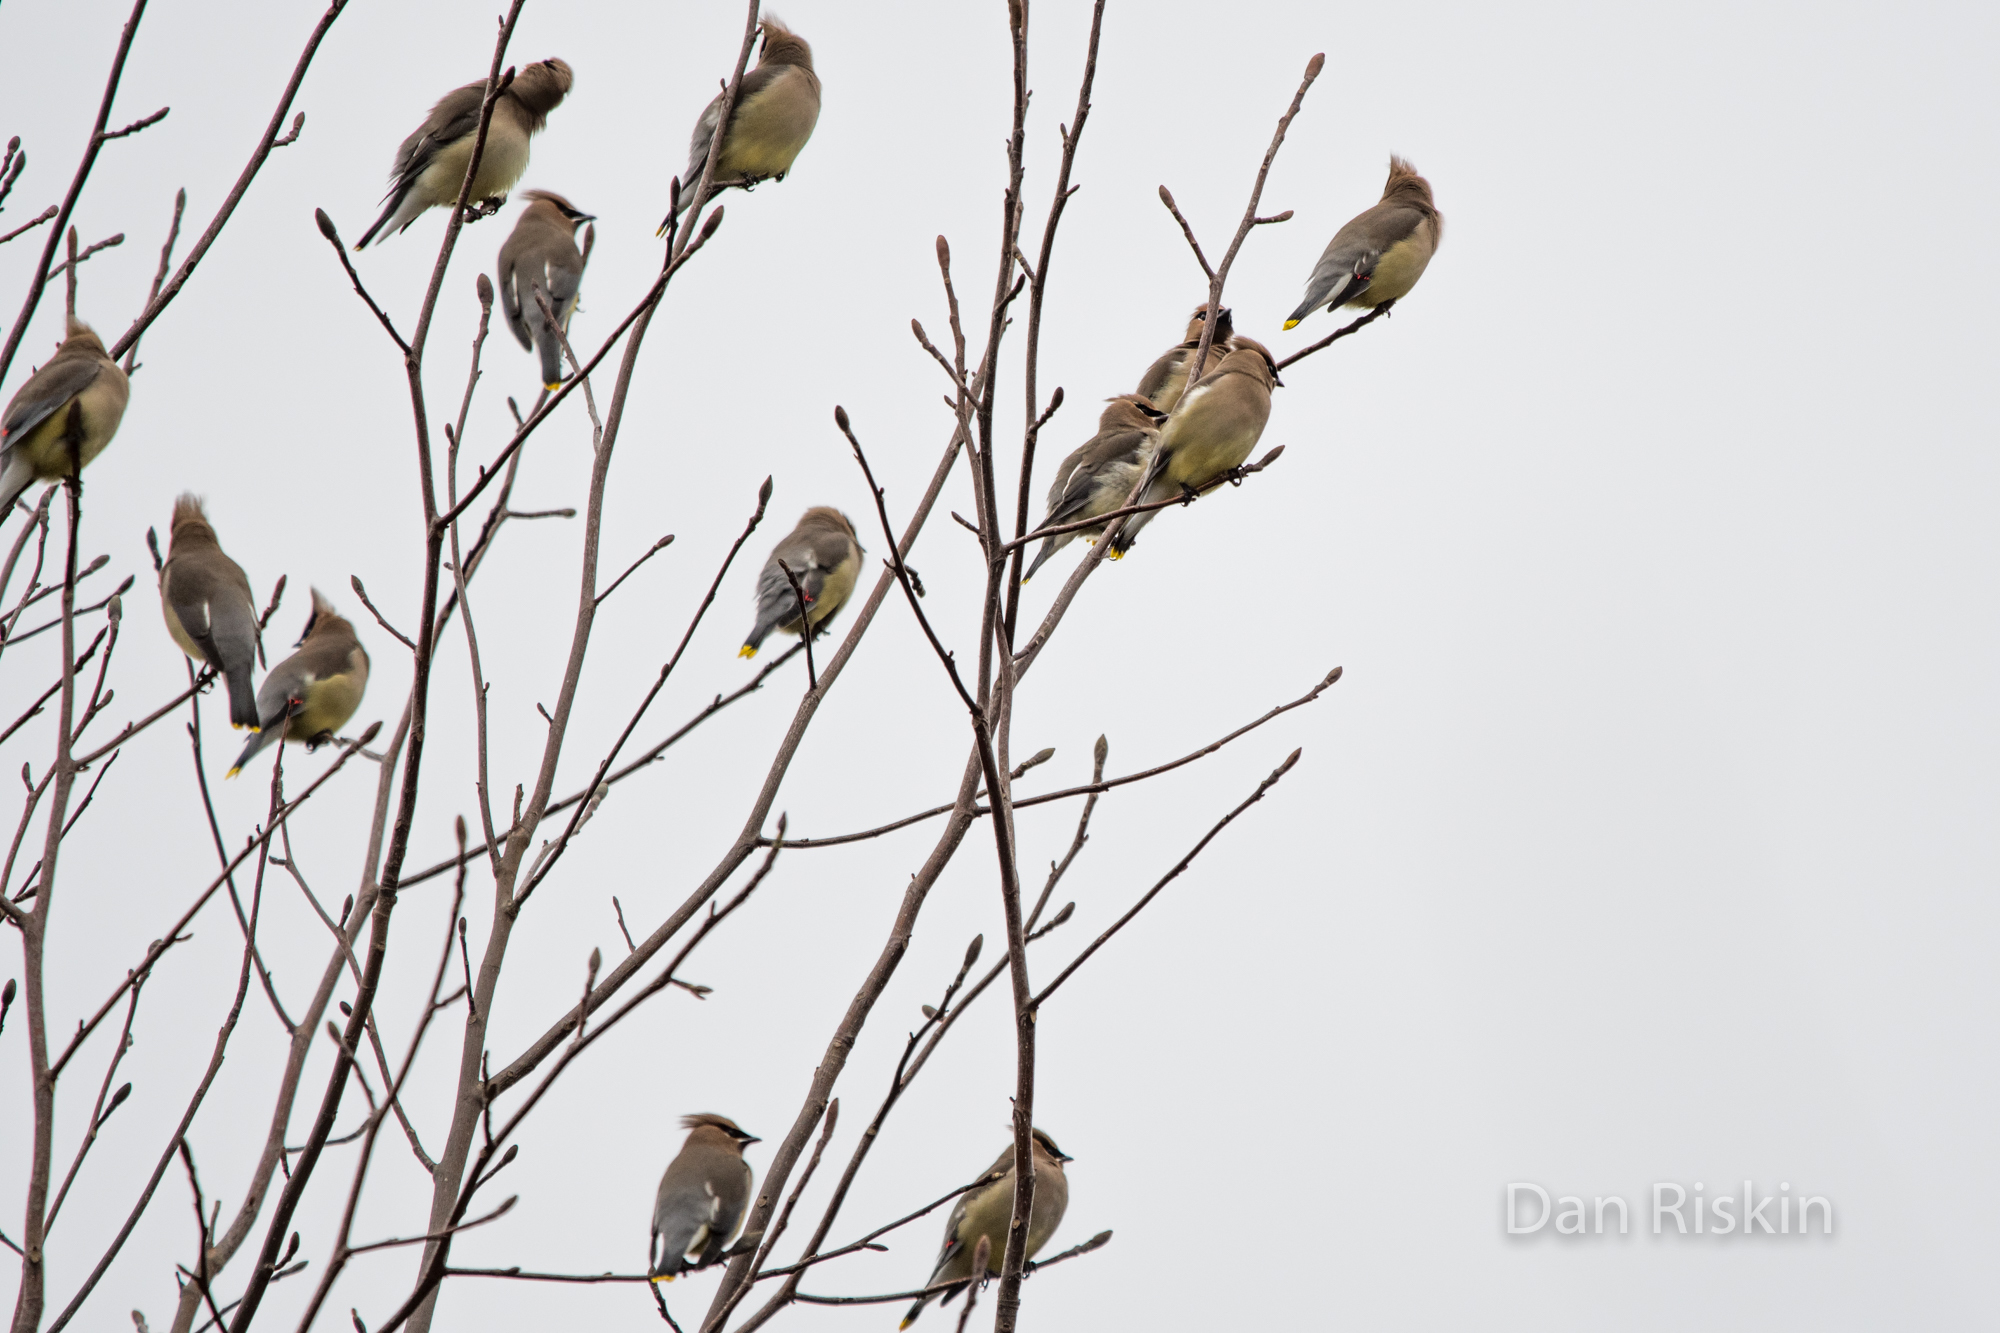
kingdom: Animalia
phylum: Chordata
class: Aves
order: Passeriformes
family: Bombycillidae
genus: Bombycilla
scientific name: Bombycilla cedrorum
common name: Cedar waxwing
